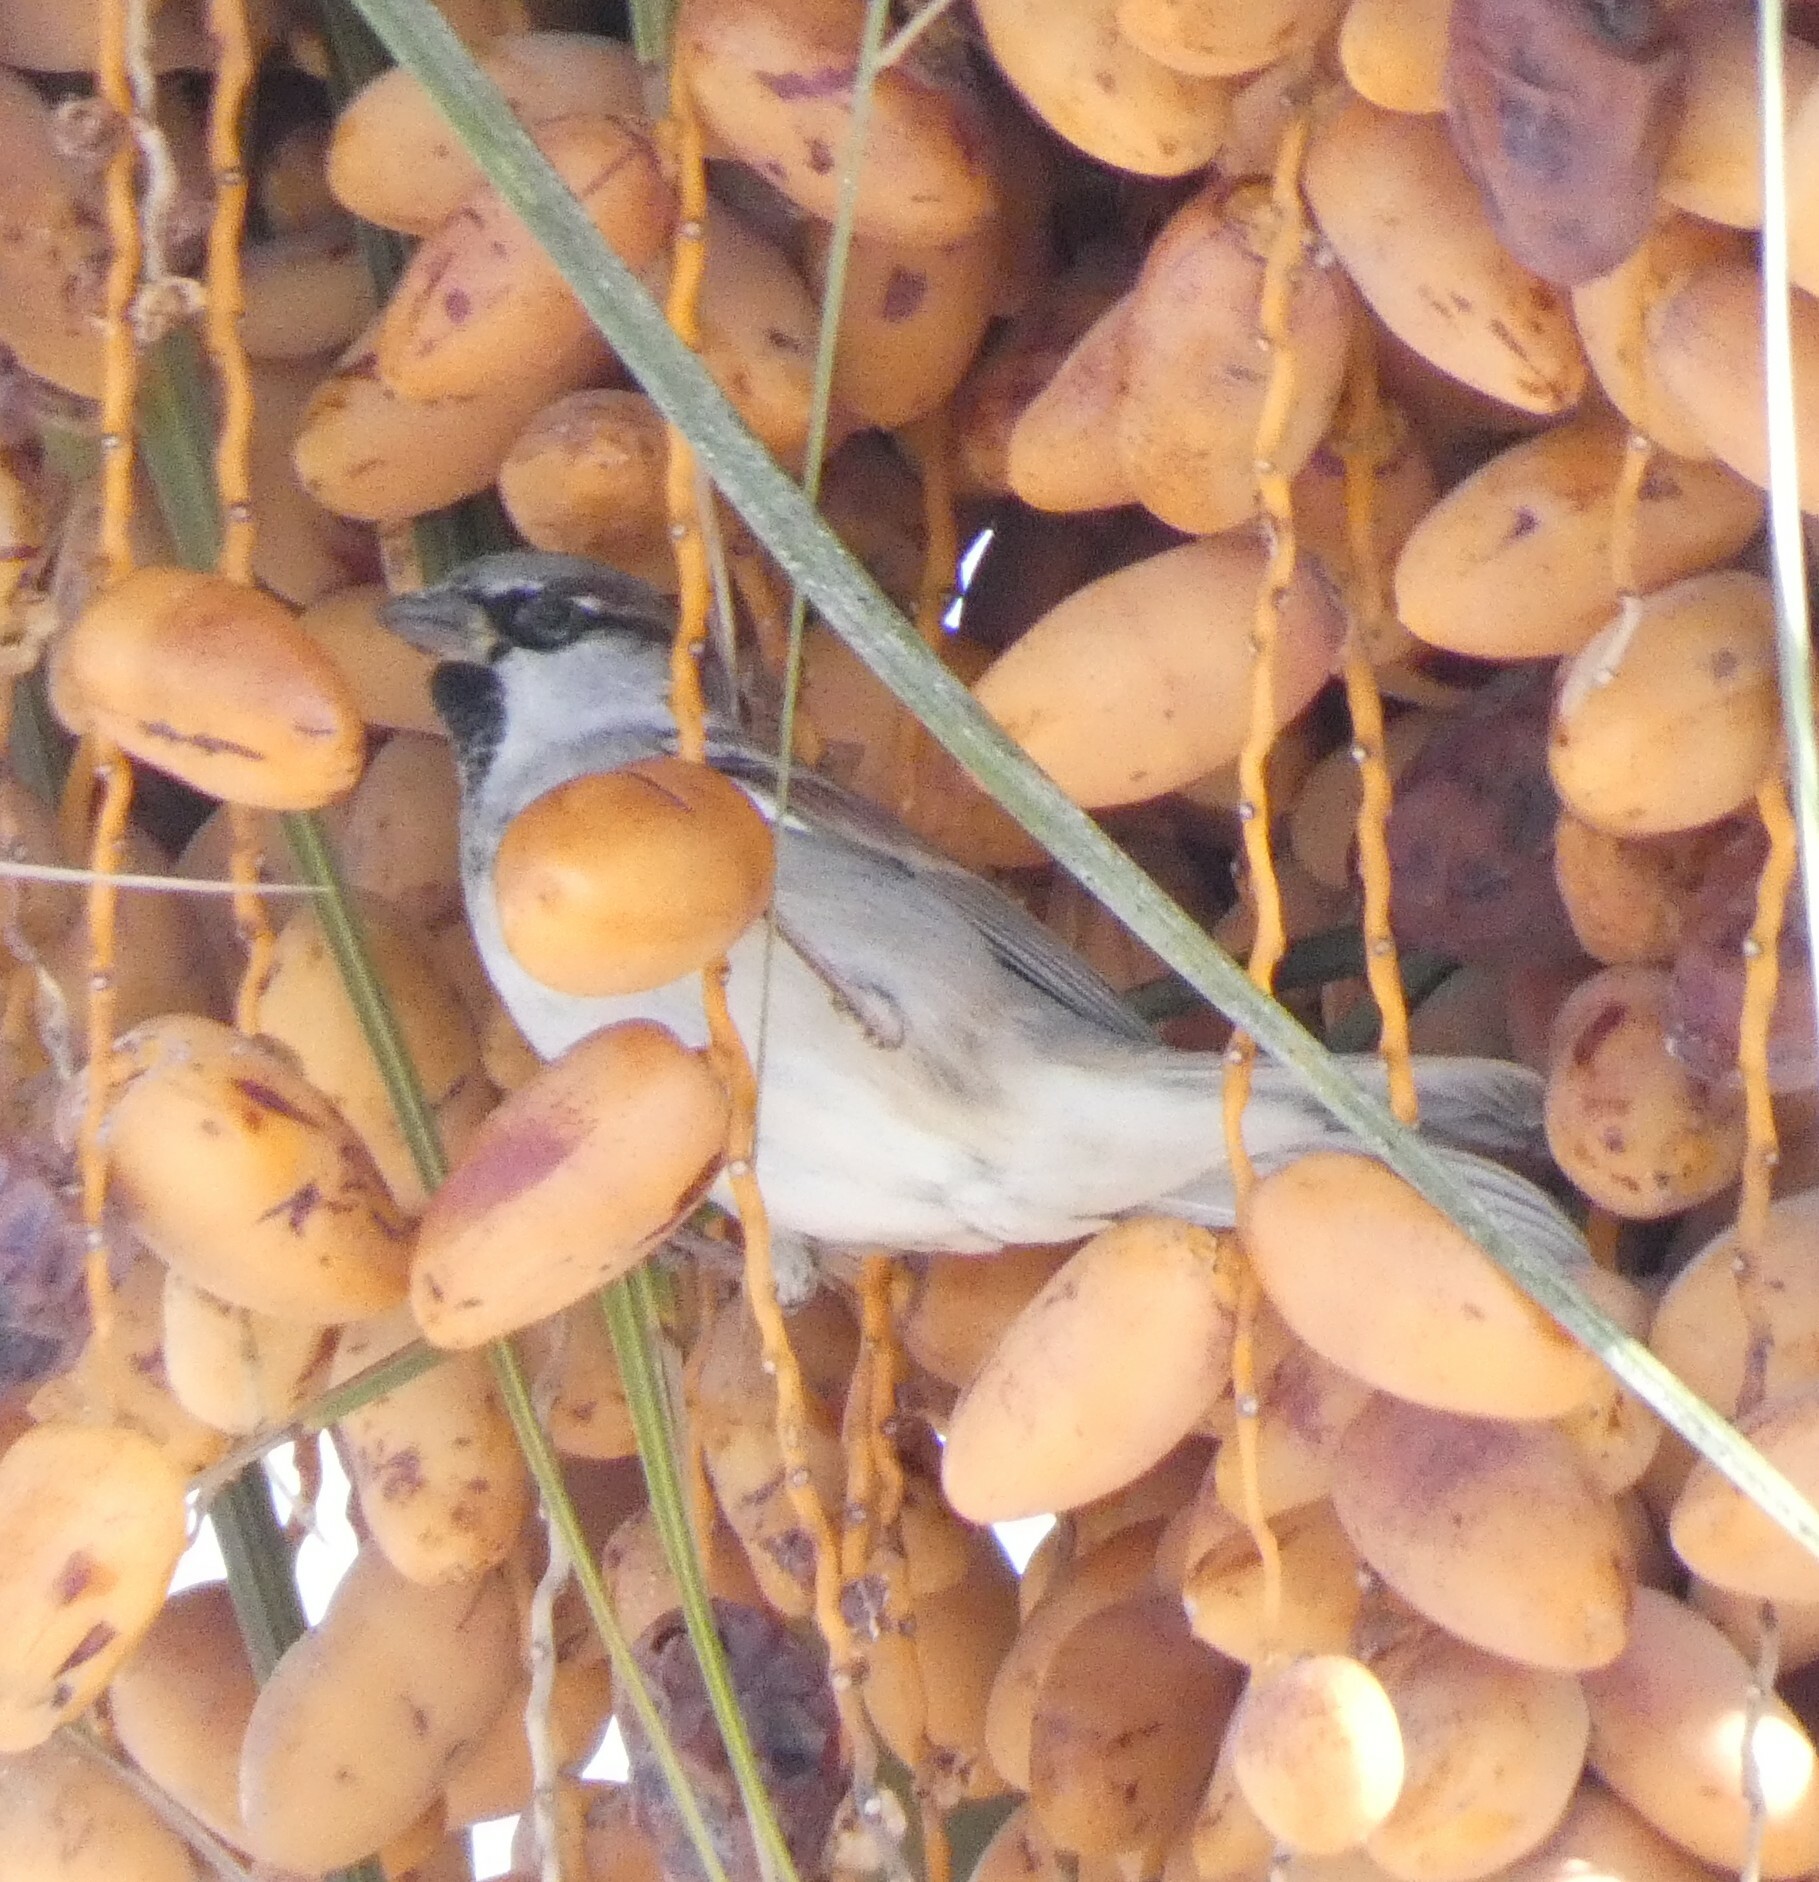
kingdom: Animalia
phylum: Chordata
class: Aves
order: Passeriformes
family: Passeridae
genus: Passer
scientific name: Passer domesticus
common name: House sparrow
